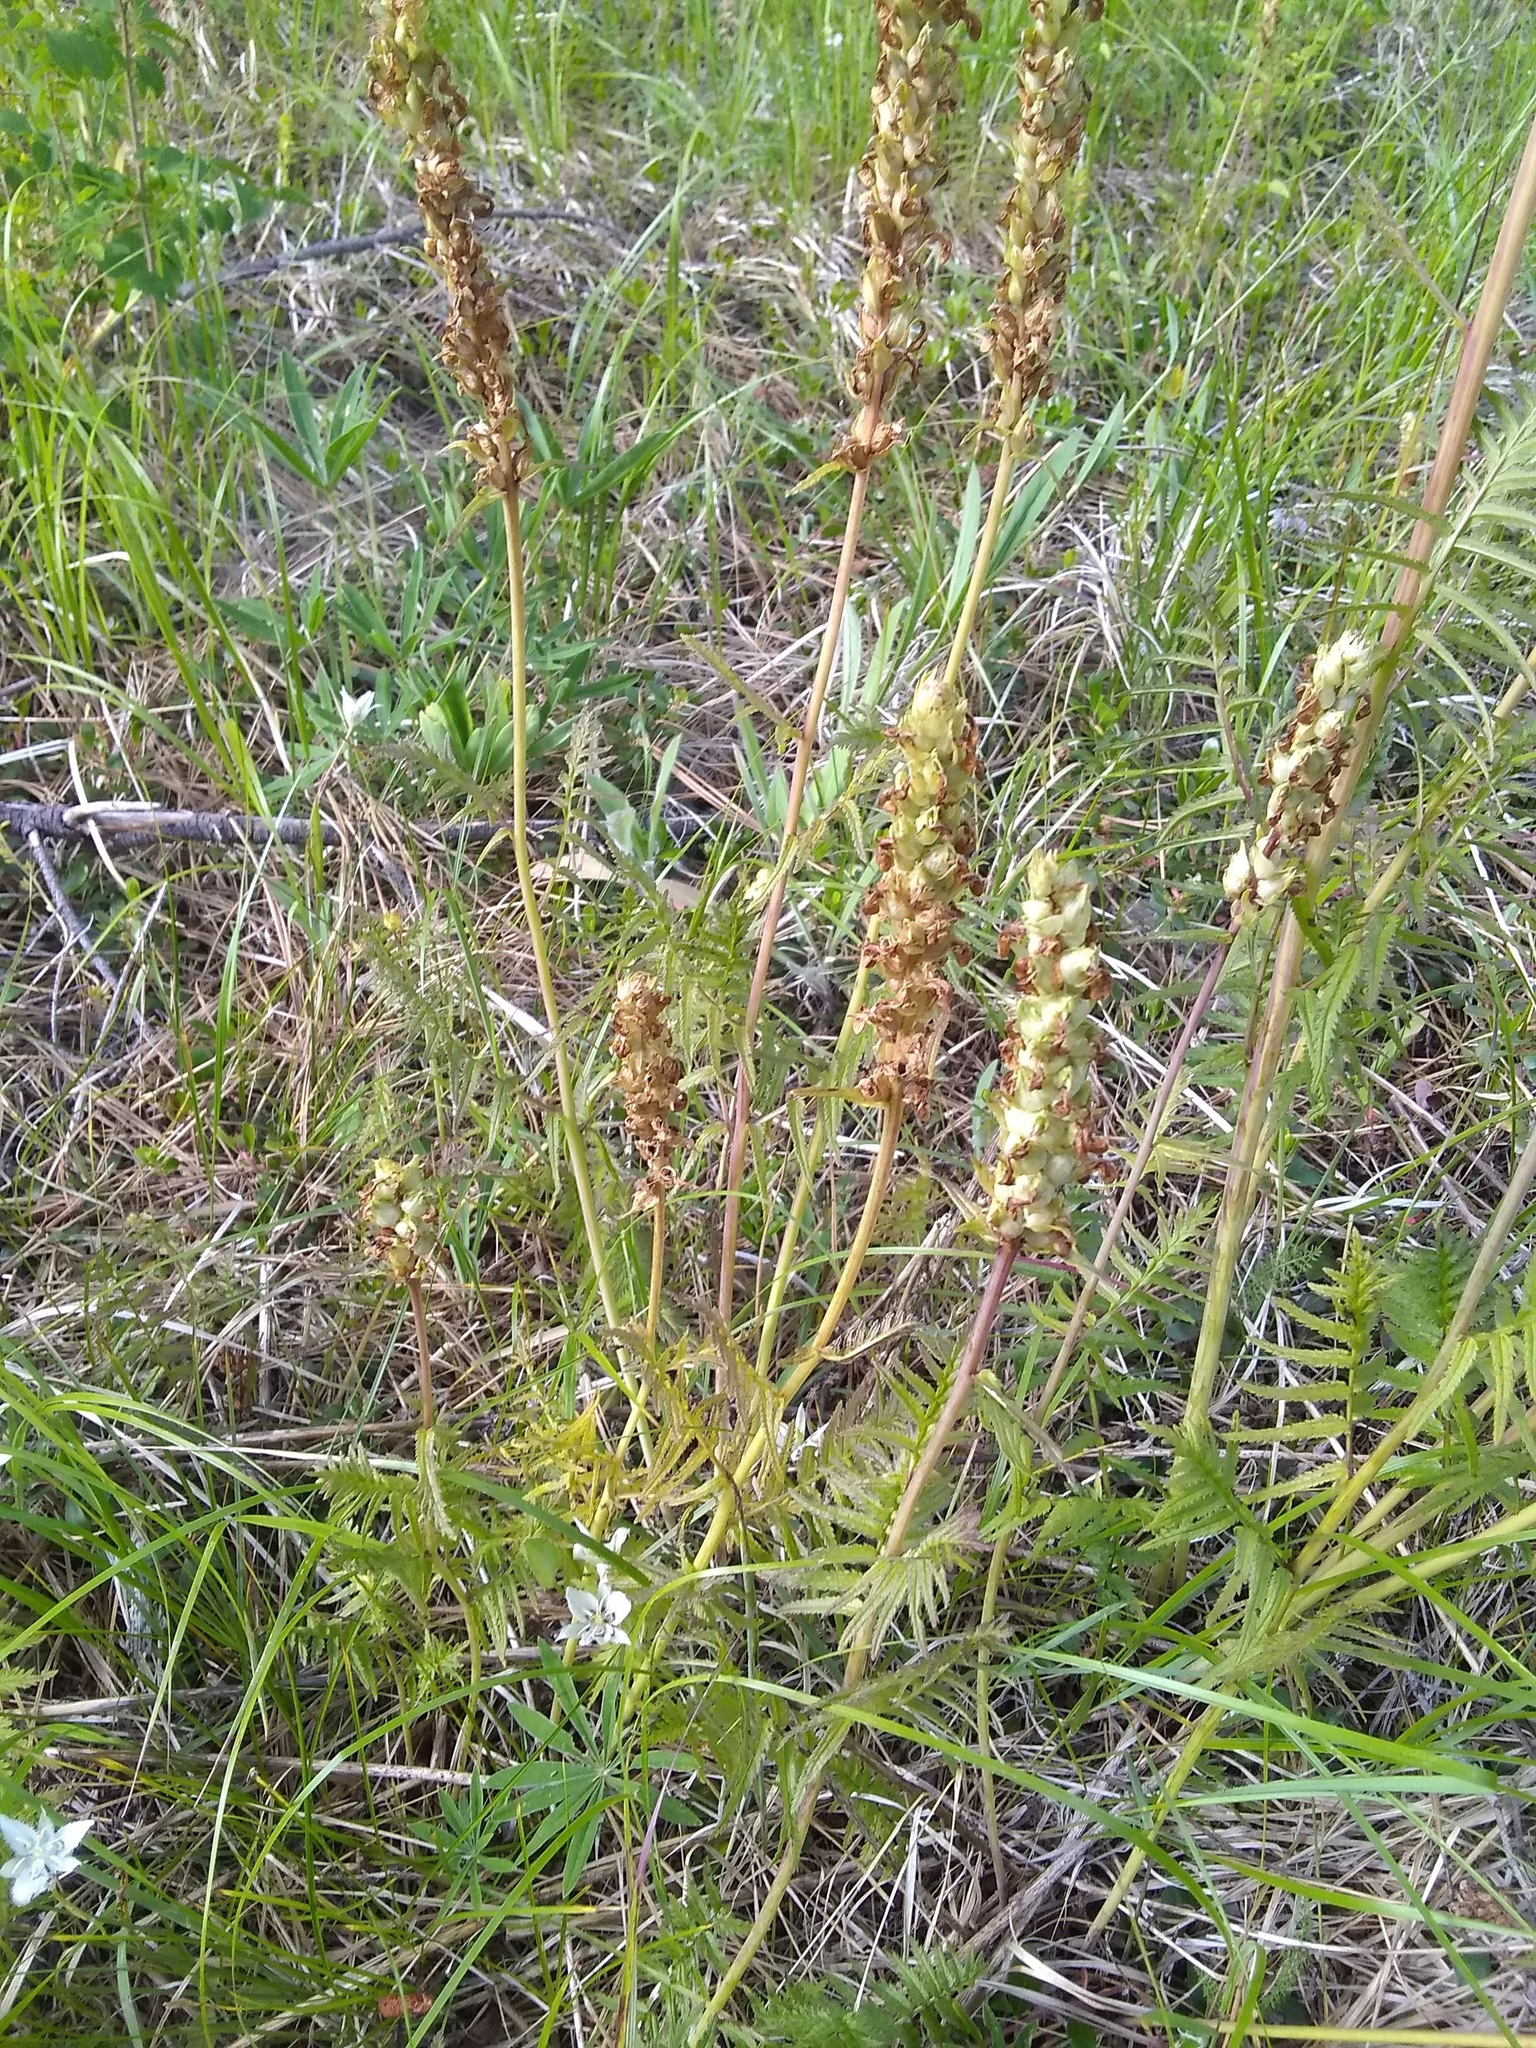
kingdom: Plantae
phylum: Tracheophyta
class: Magnoliopsida
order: Lamiales
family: Orobanchaceae
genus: Pedicularis
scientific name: Pedicularis bracteosa
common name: Bracted lousewort
